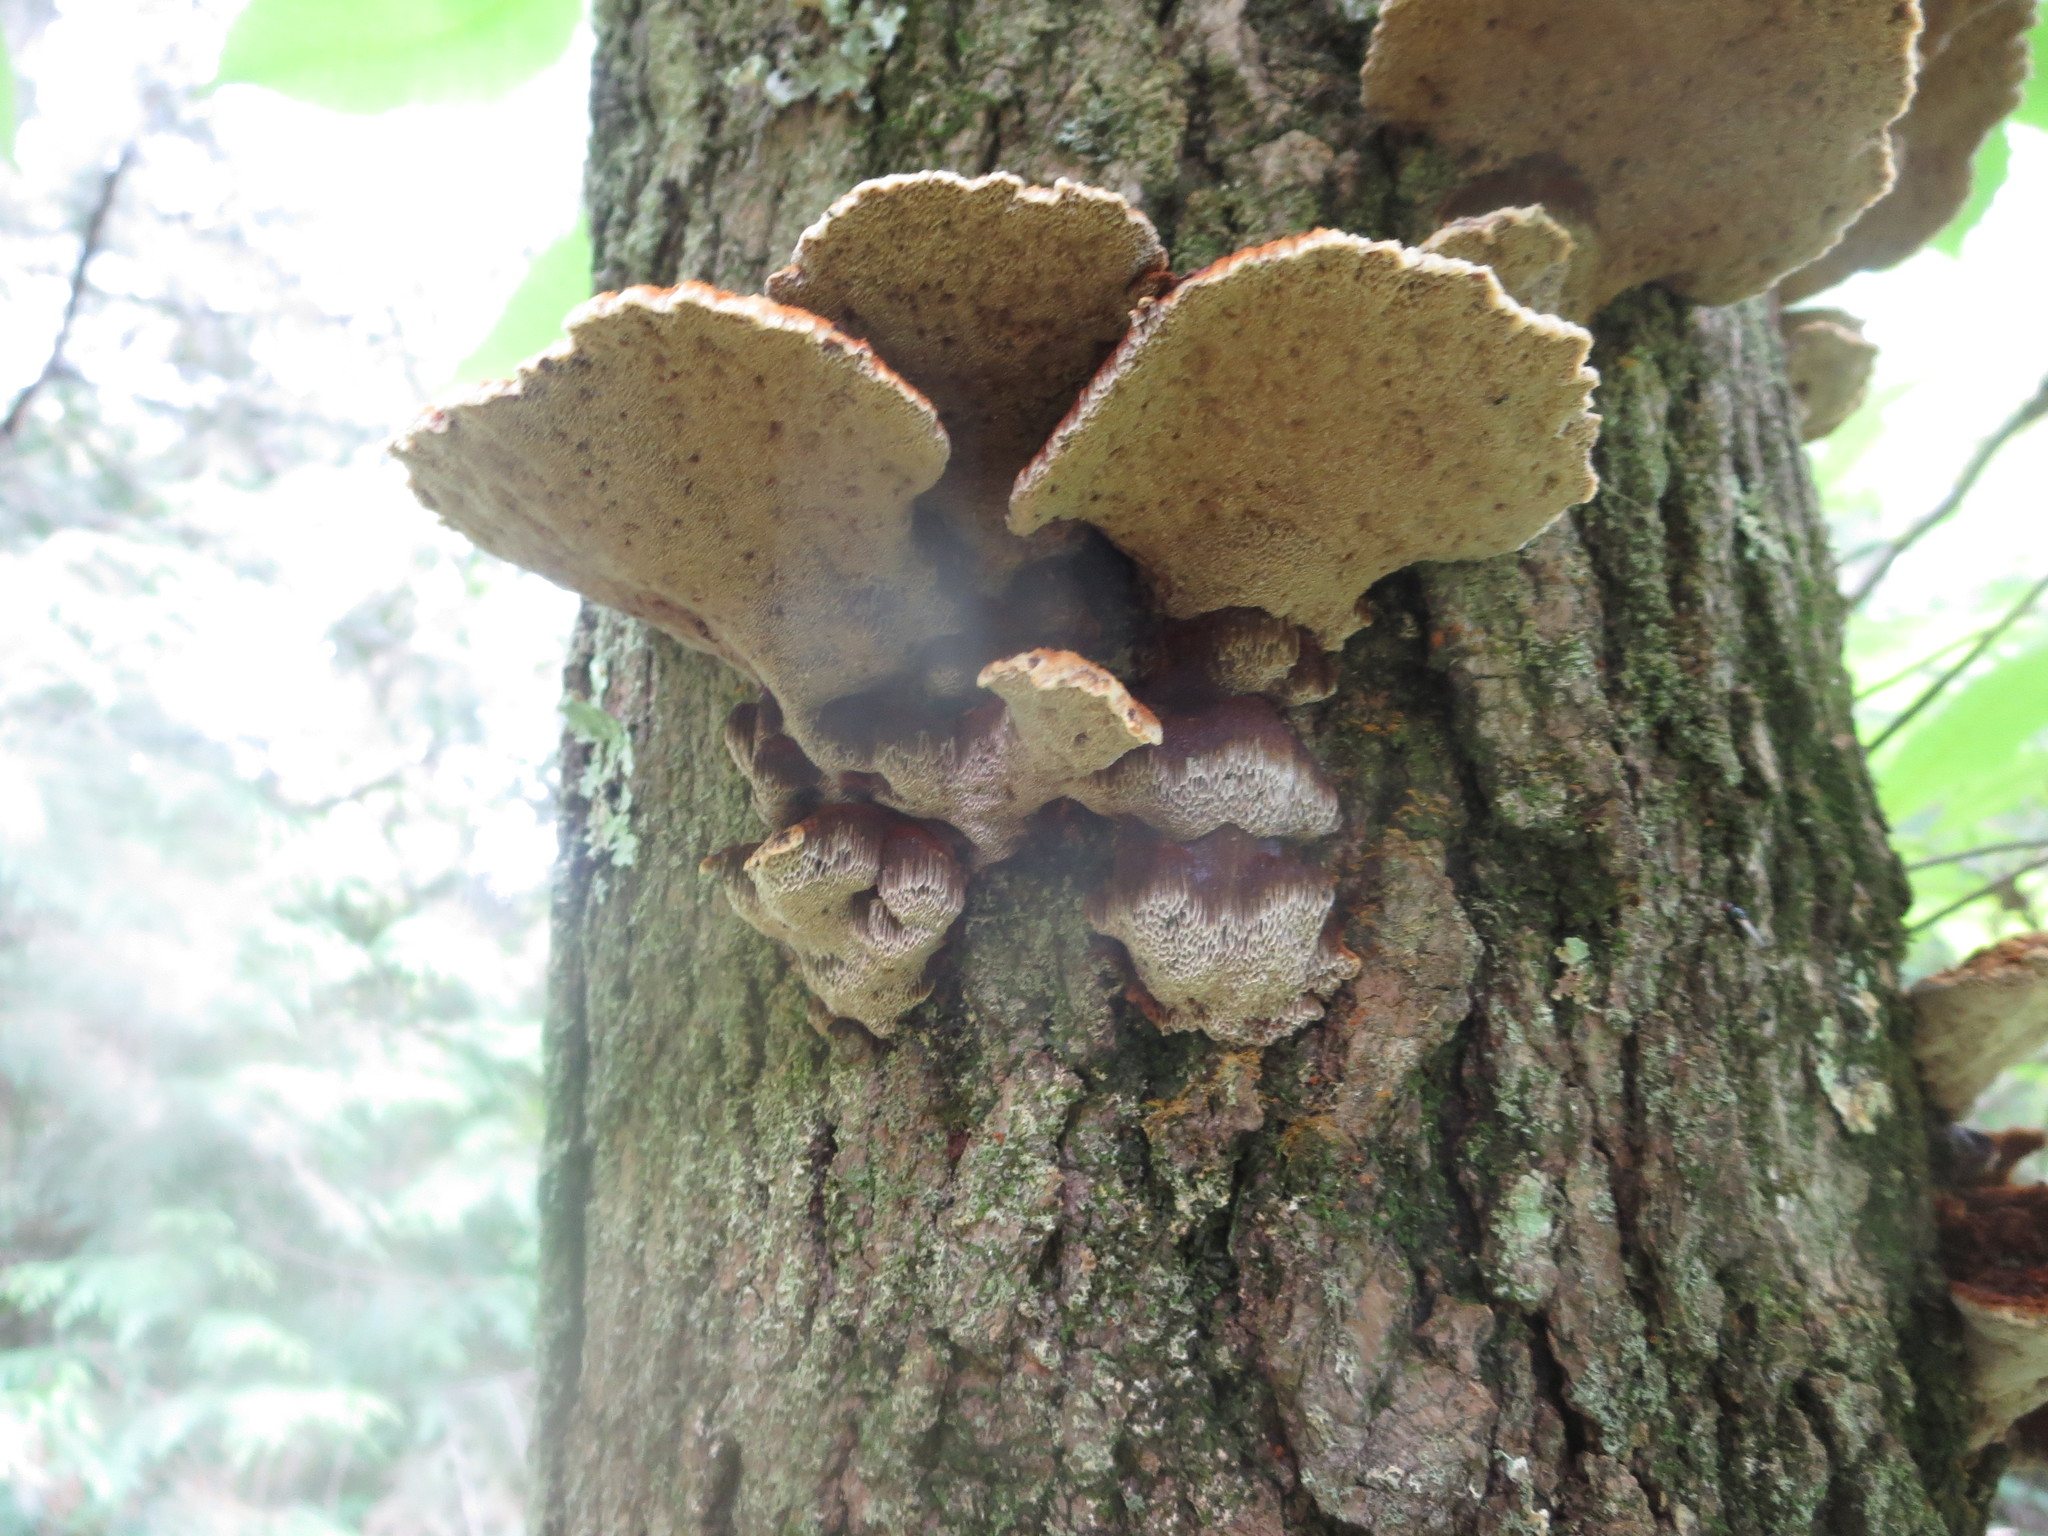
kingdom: Fungi
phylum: Basidiomycota
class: Agaricomycetes
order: Hymenochaetales
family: Hymenochaetaceae
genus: Phellinus
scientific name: Phellinus gilvus
